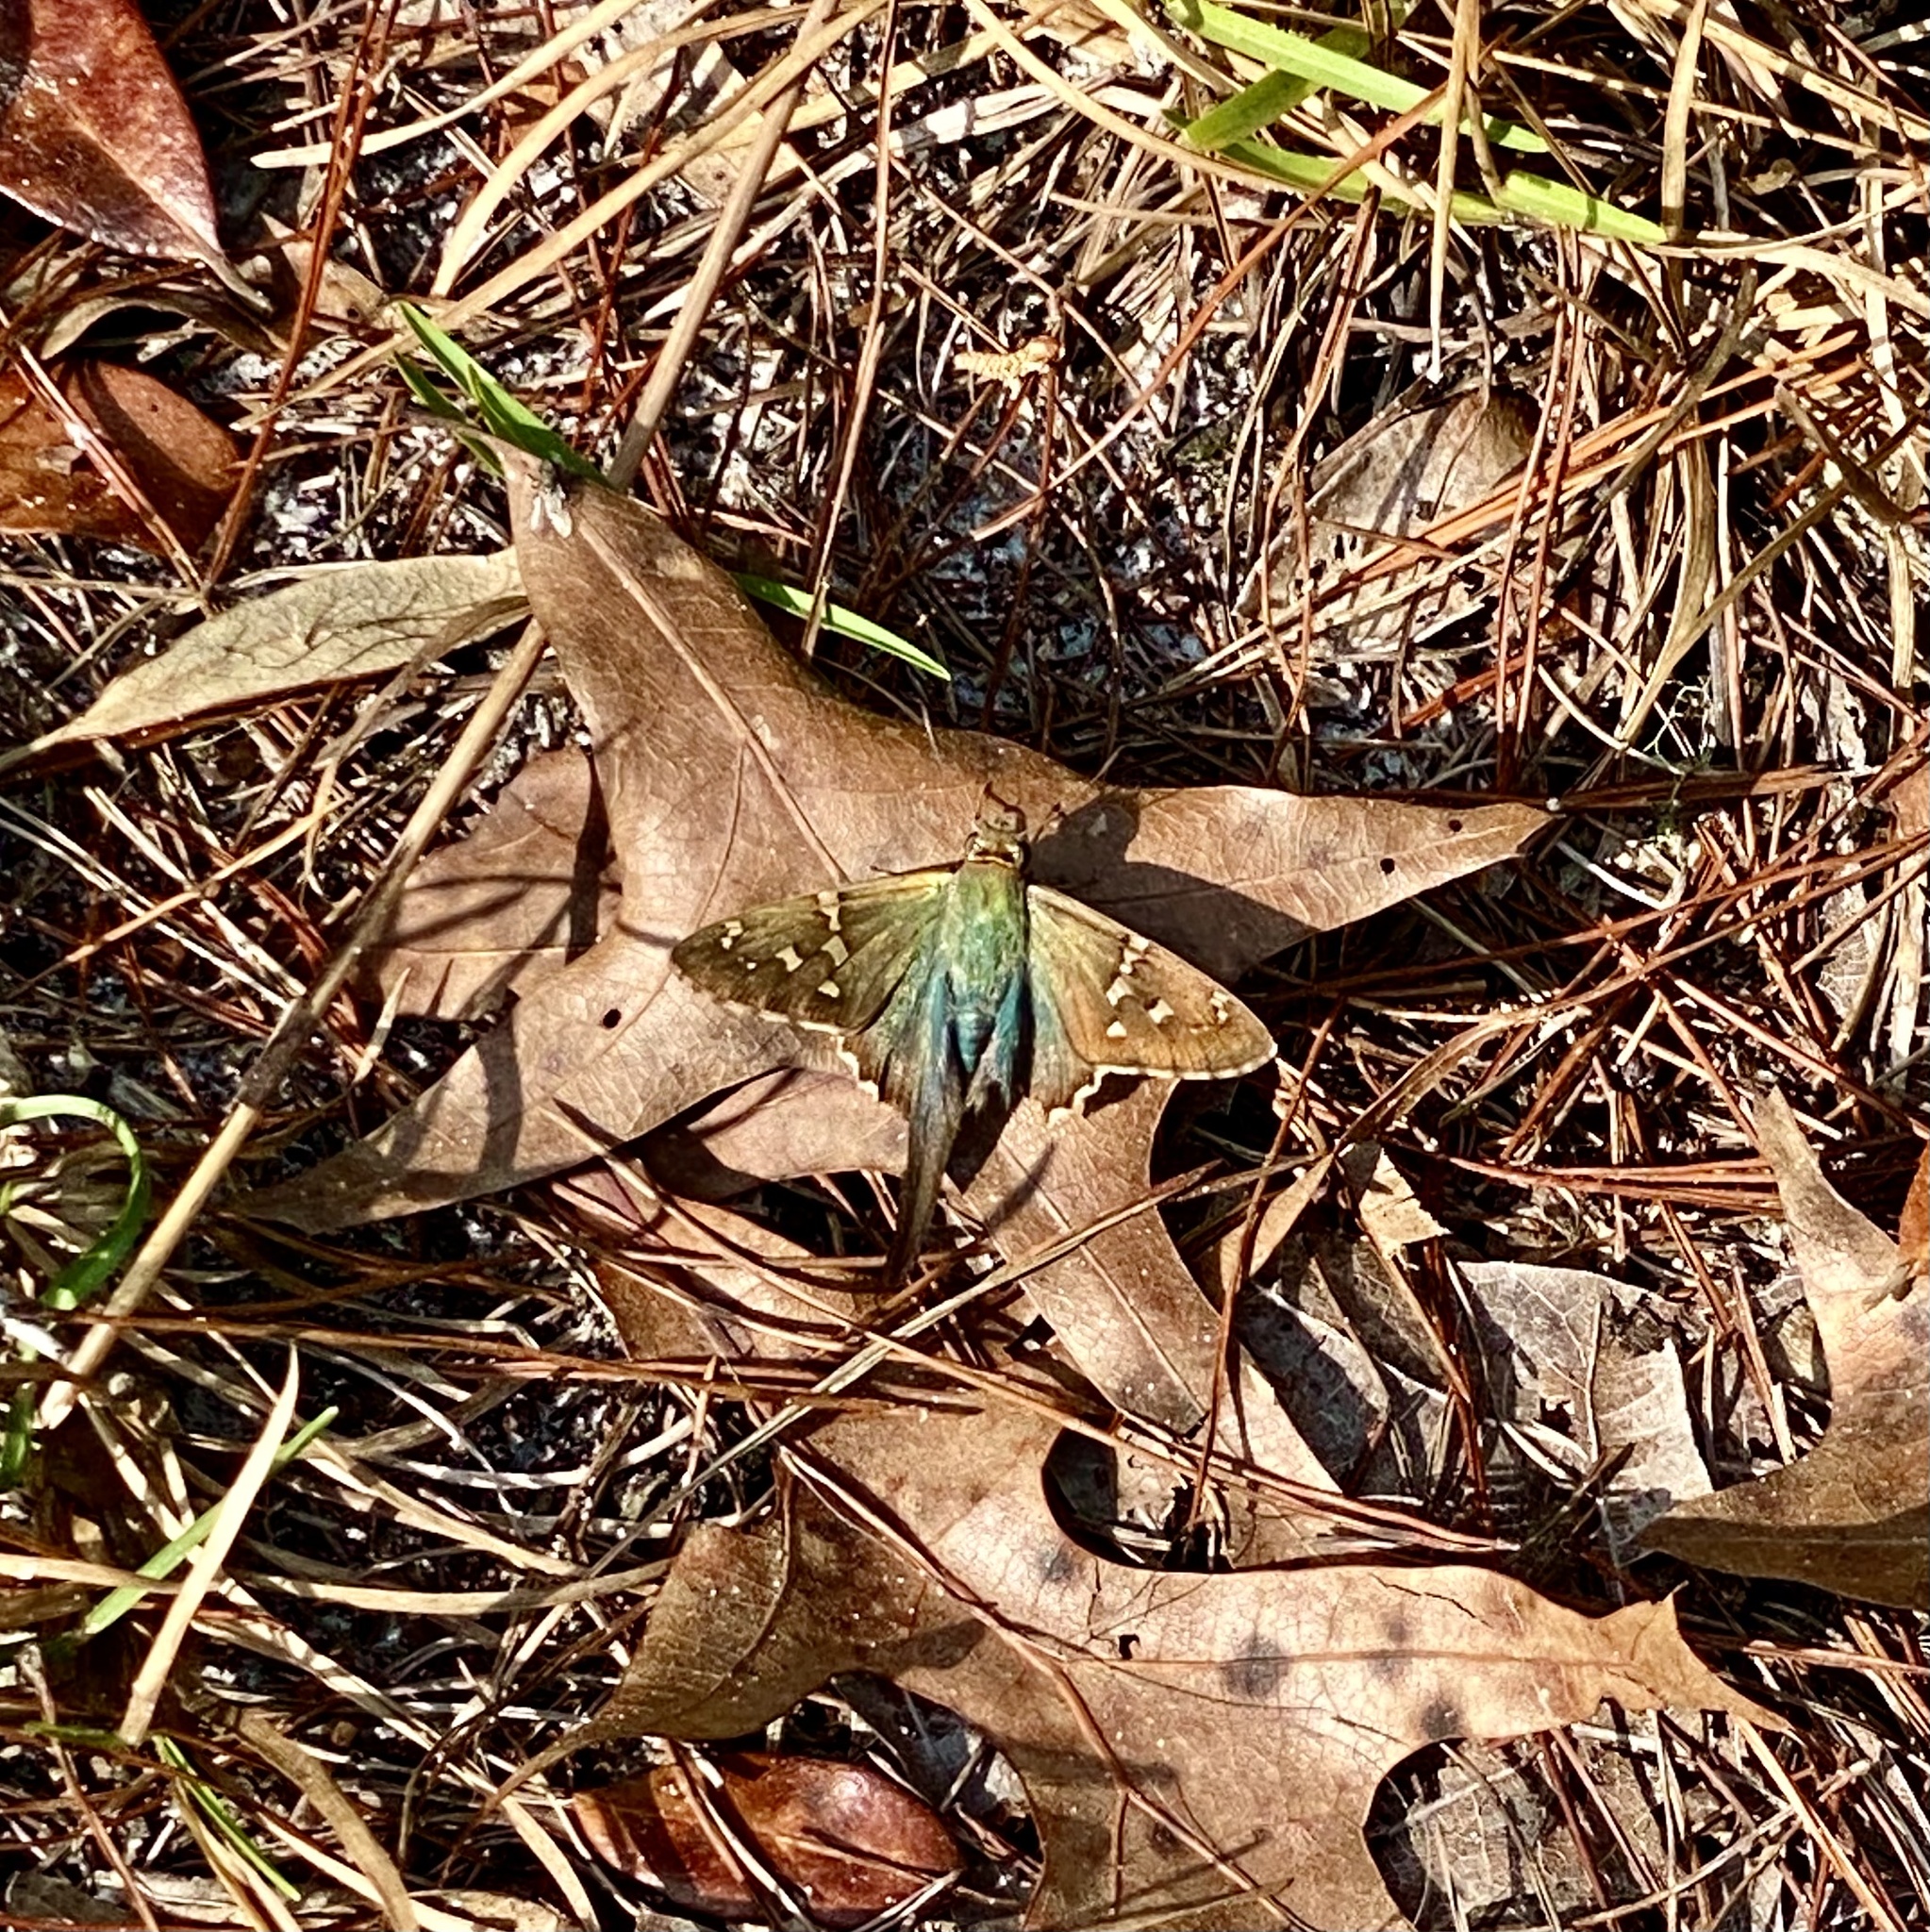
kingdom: Animalia
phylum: Arthropoda
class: Insecta
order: Lepidoptera
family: Hesperiidae
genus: Urbanus
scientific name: Urbanus proteus
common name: Long-tailed skipper
